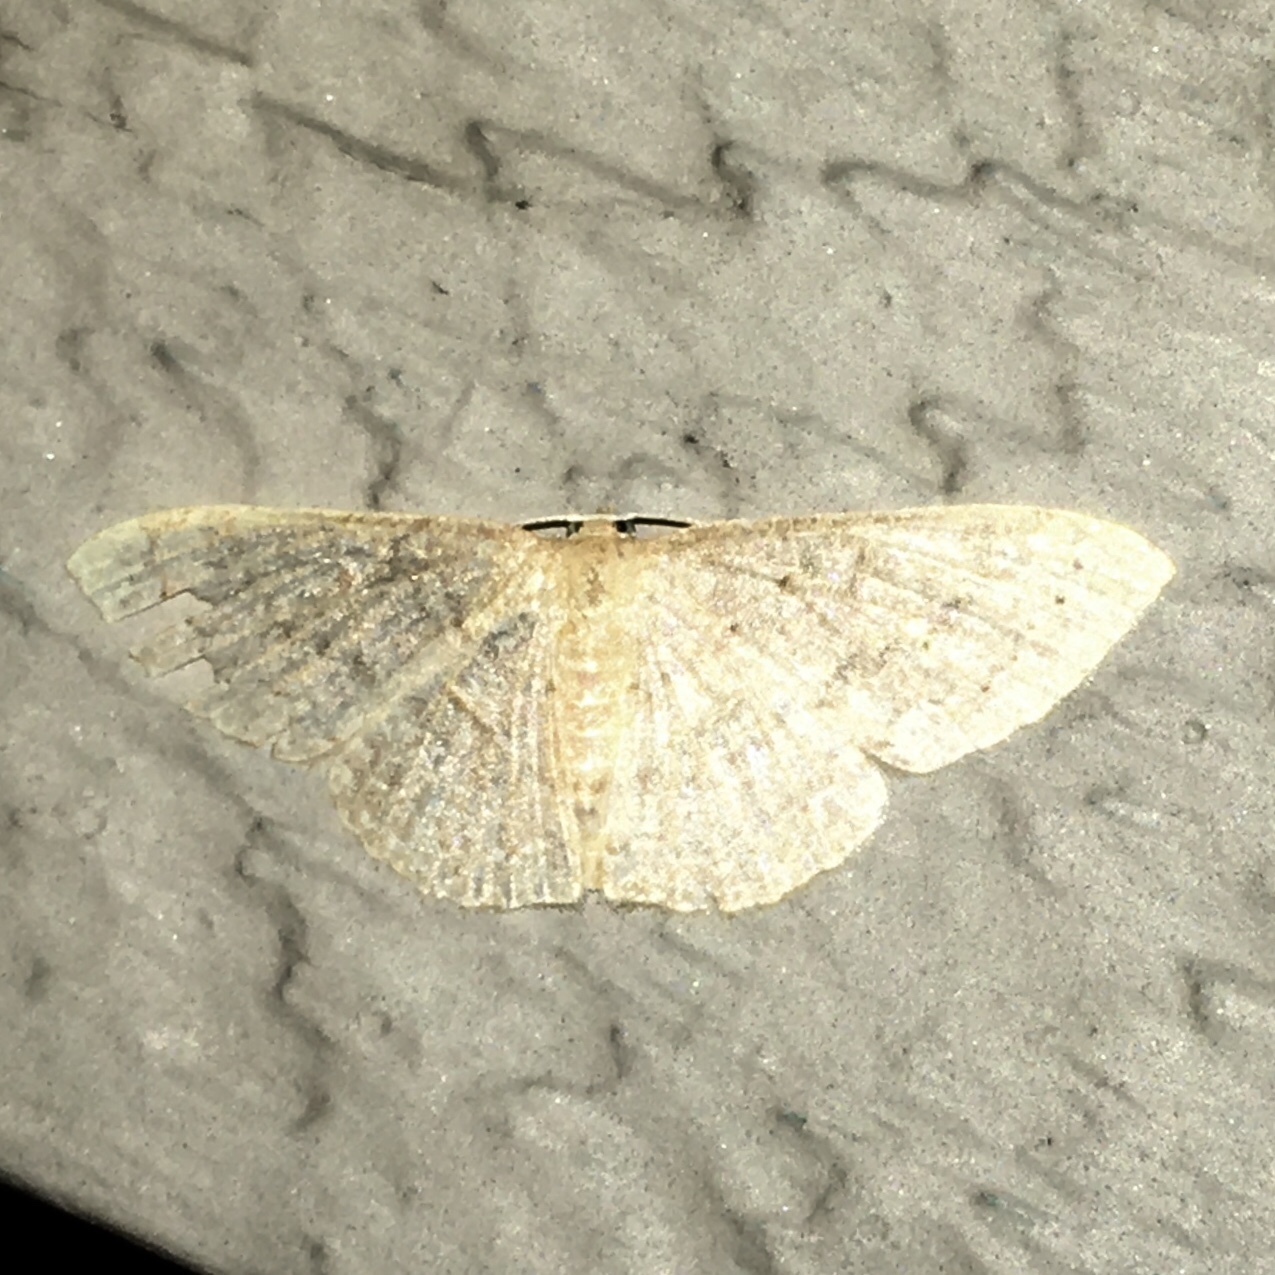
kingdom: Animalia
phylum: Arthropoda
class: Insecta
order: Lepidoptera
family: Geometridae
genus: Pleuroprucha
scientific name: Pleuroprucha insulsaria
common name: Common tan wave
